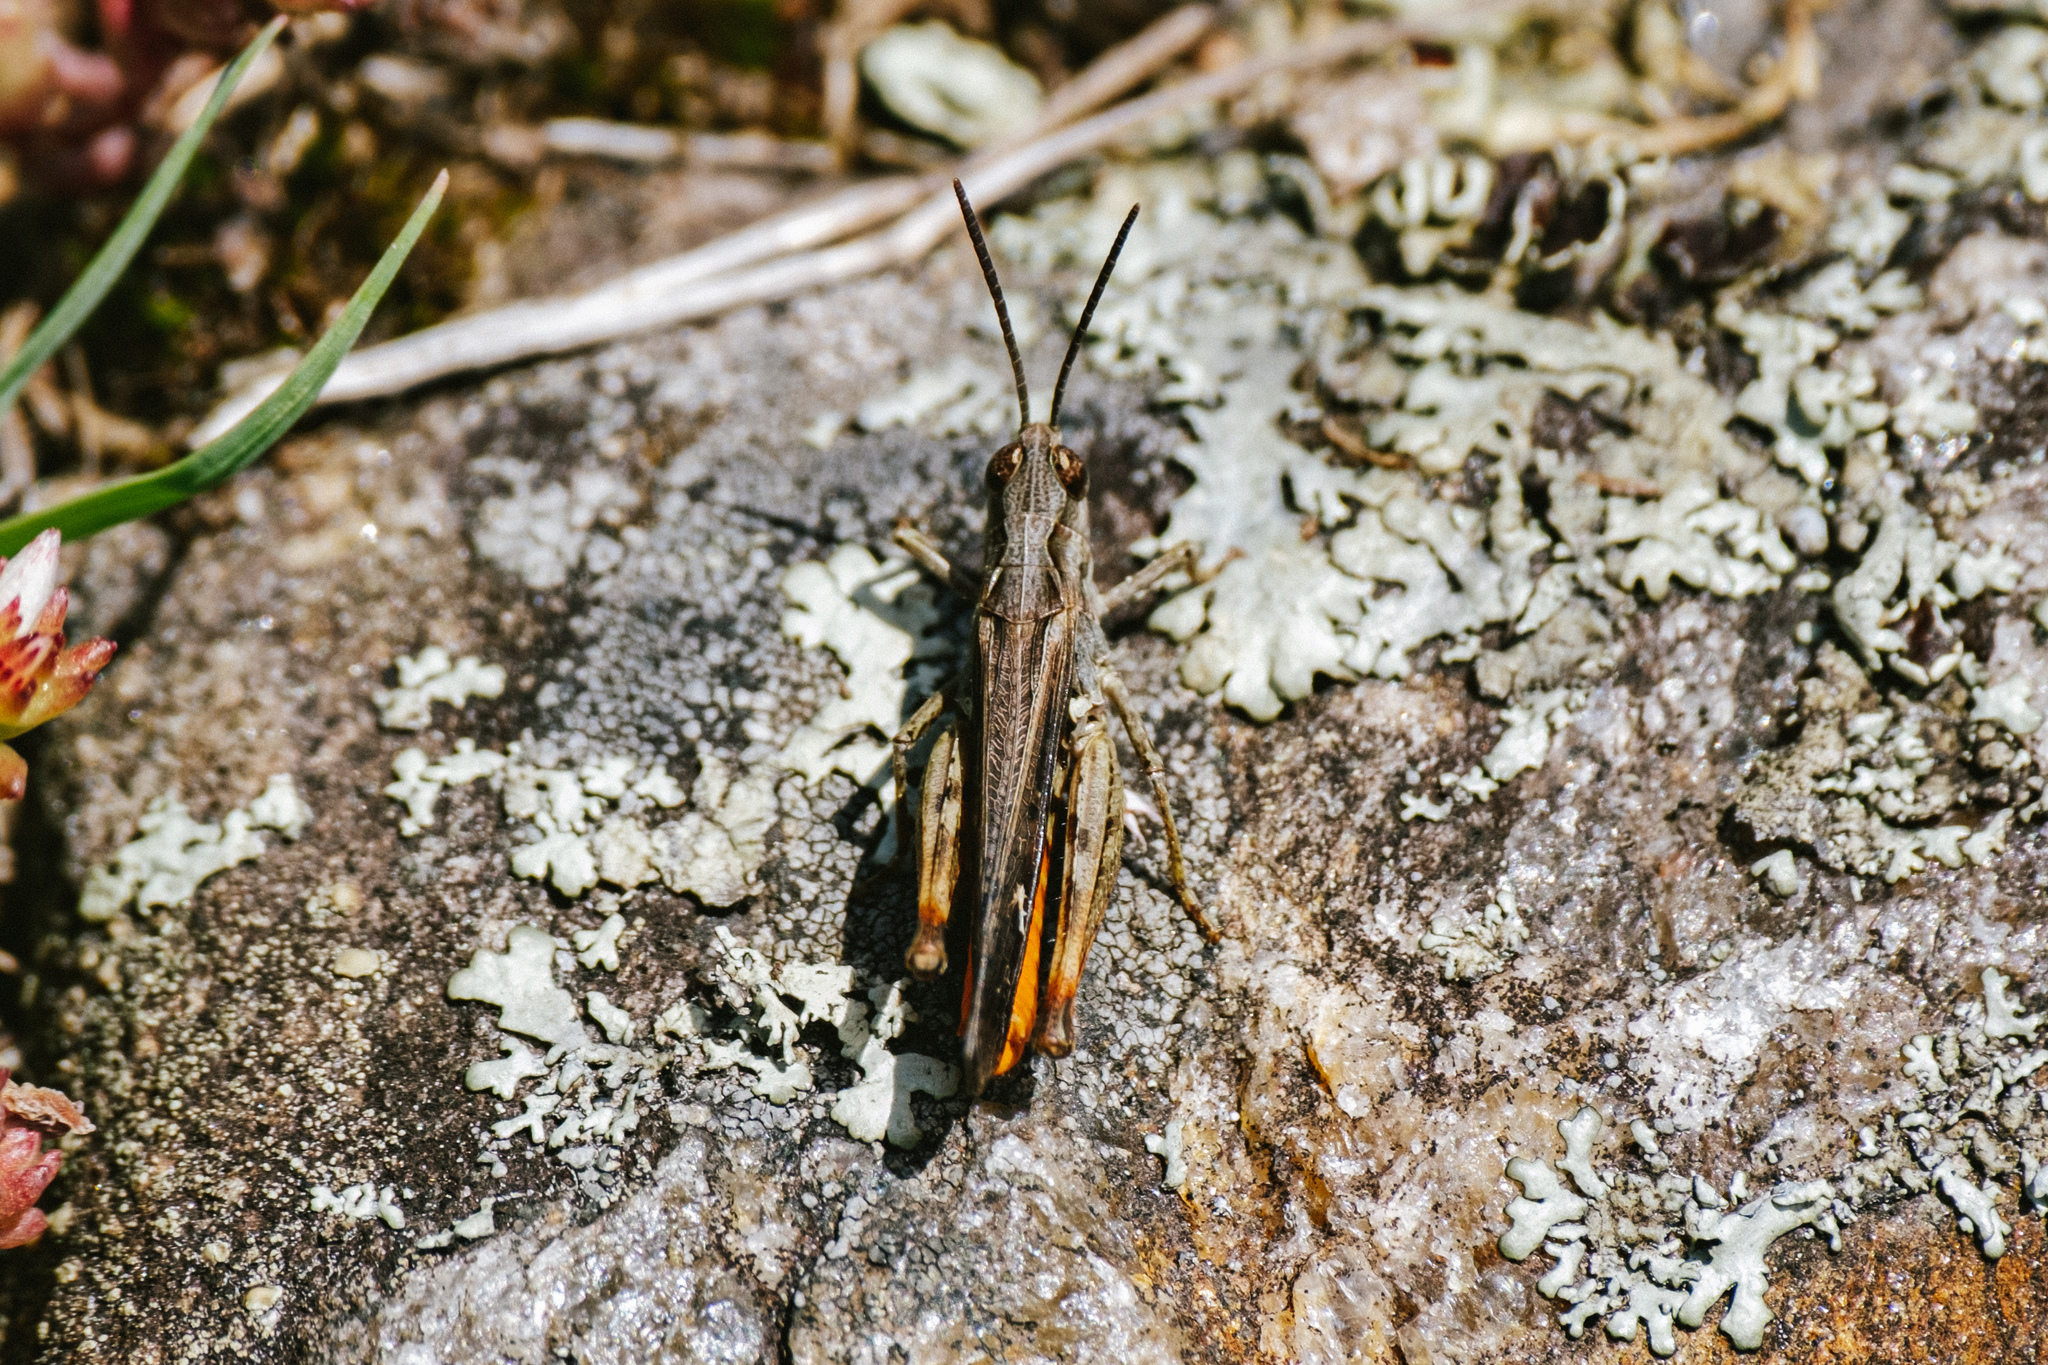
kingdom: Animalia
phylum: Arthropoda
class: Insecta
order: Orthoptera
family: Acrididae
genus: Omocestus
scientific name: Omocestus raymondi
